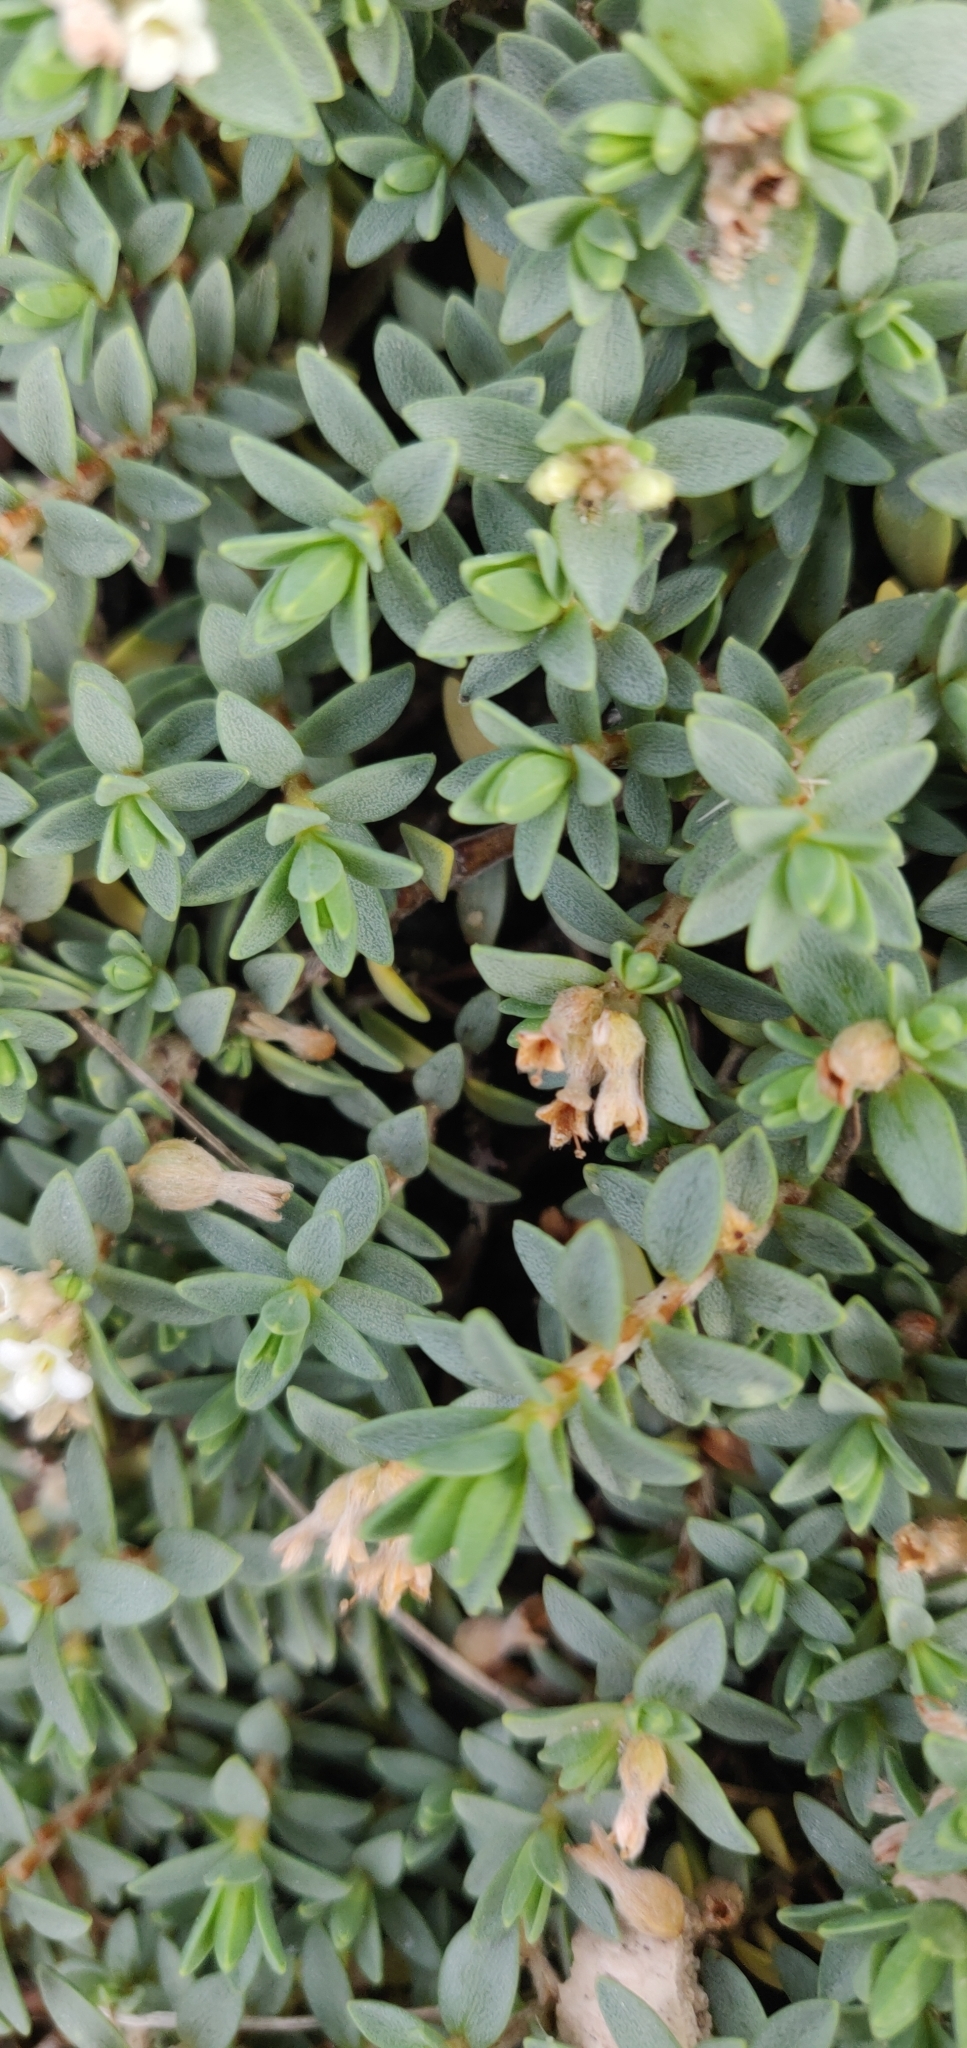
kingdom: Plantae
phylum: Tracheophyta
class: Magnoliopsida
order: Malvales
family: Thymelaeaceae
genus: Pimelea
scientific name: Pimelea prostrata
